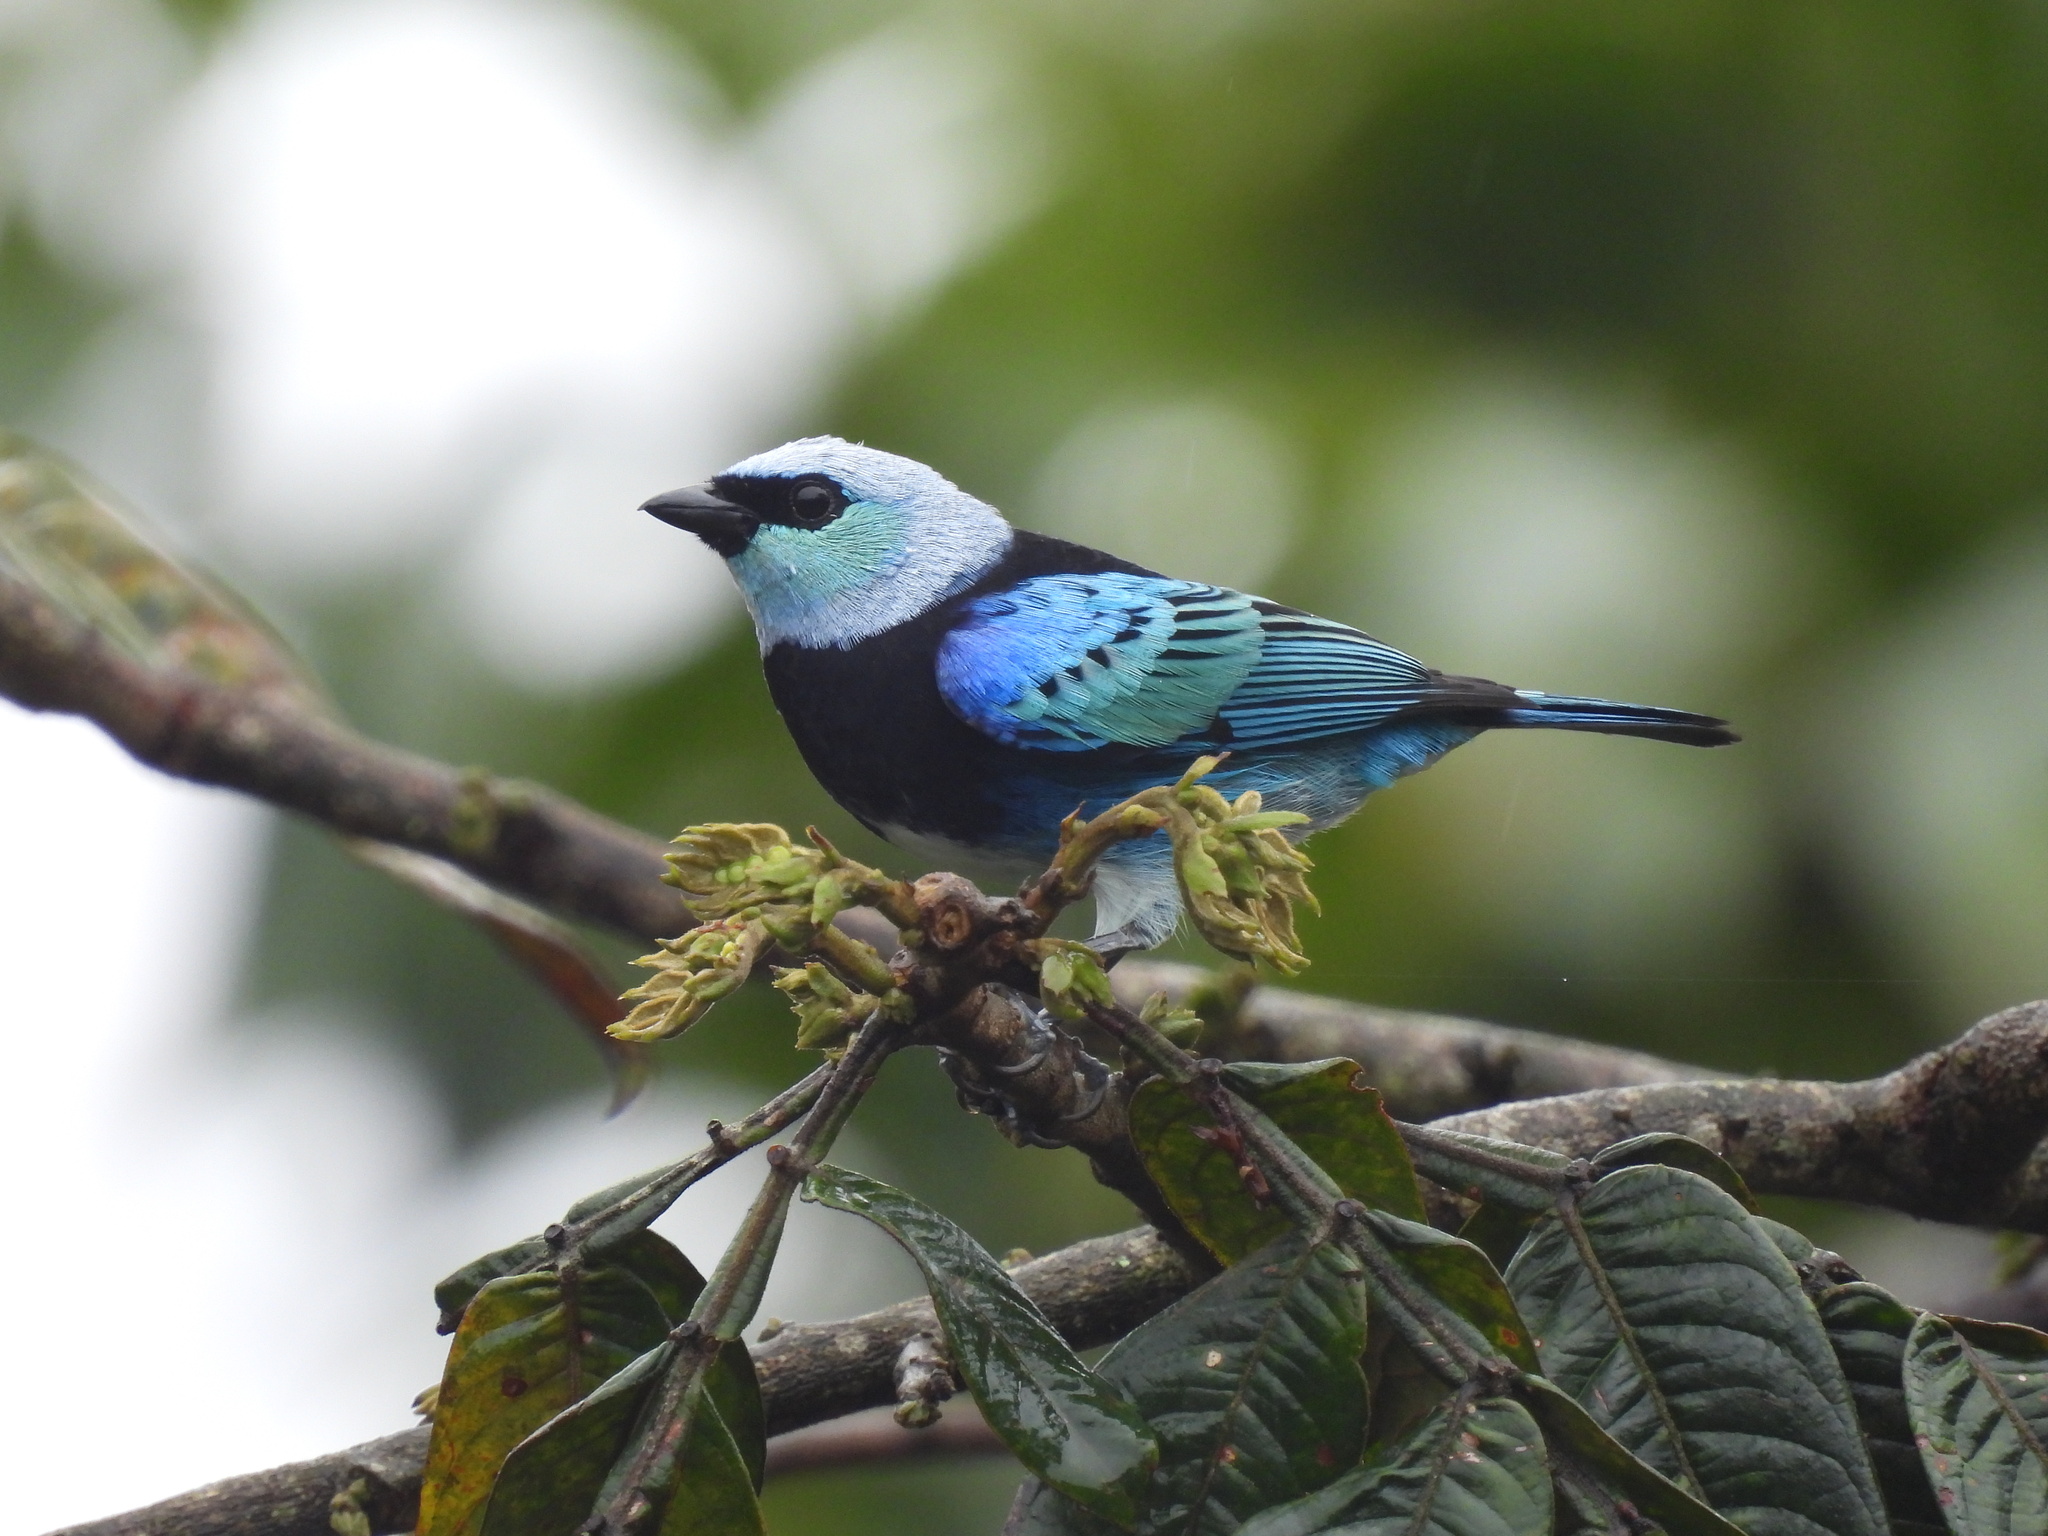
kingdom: Animalia
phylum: Chordata
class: Aves
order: Passeriformes
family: Thraupidae
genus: Stilpnia
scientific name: Stilpnia nigrocincta
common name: Masked tanager
